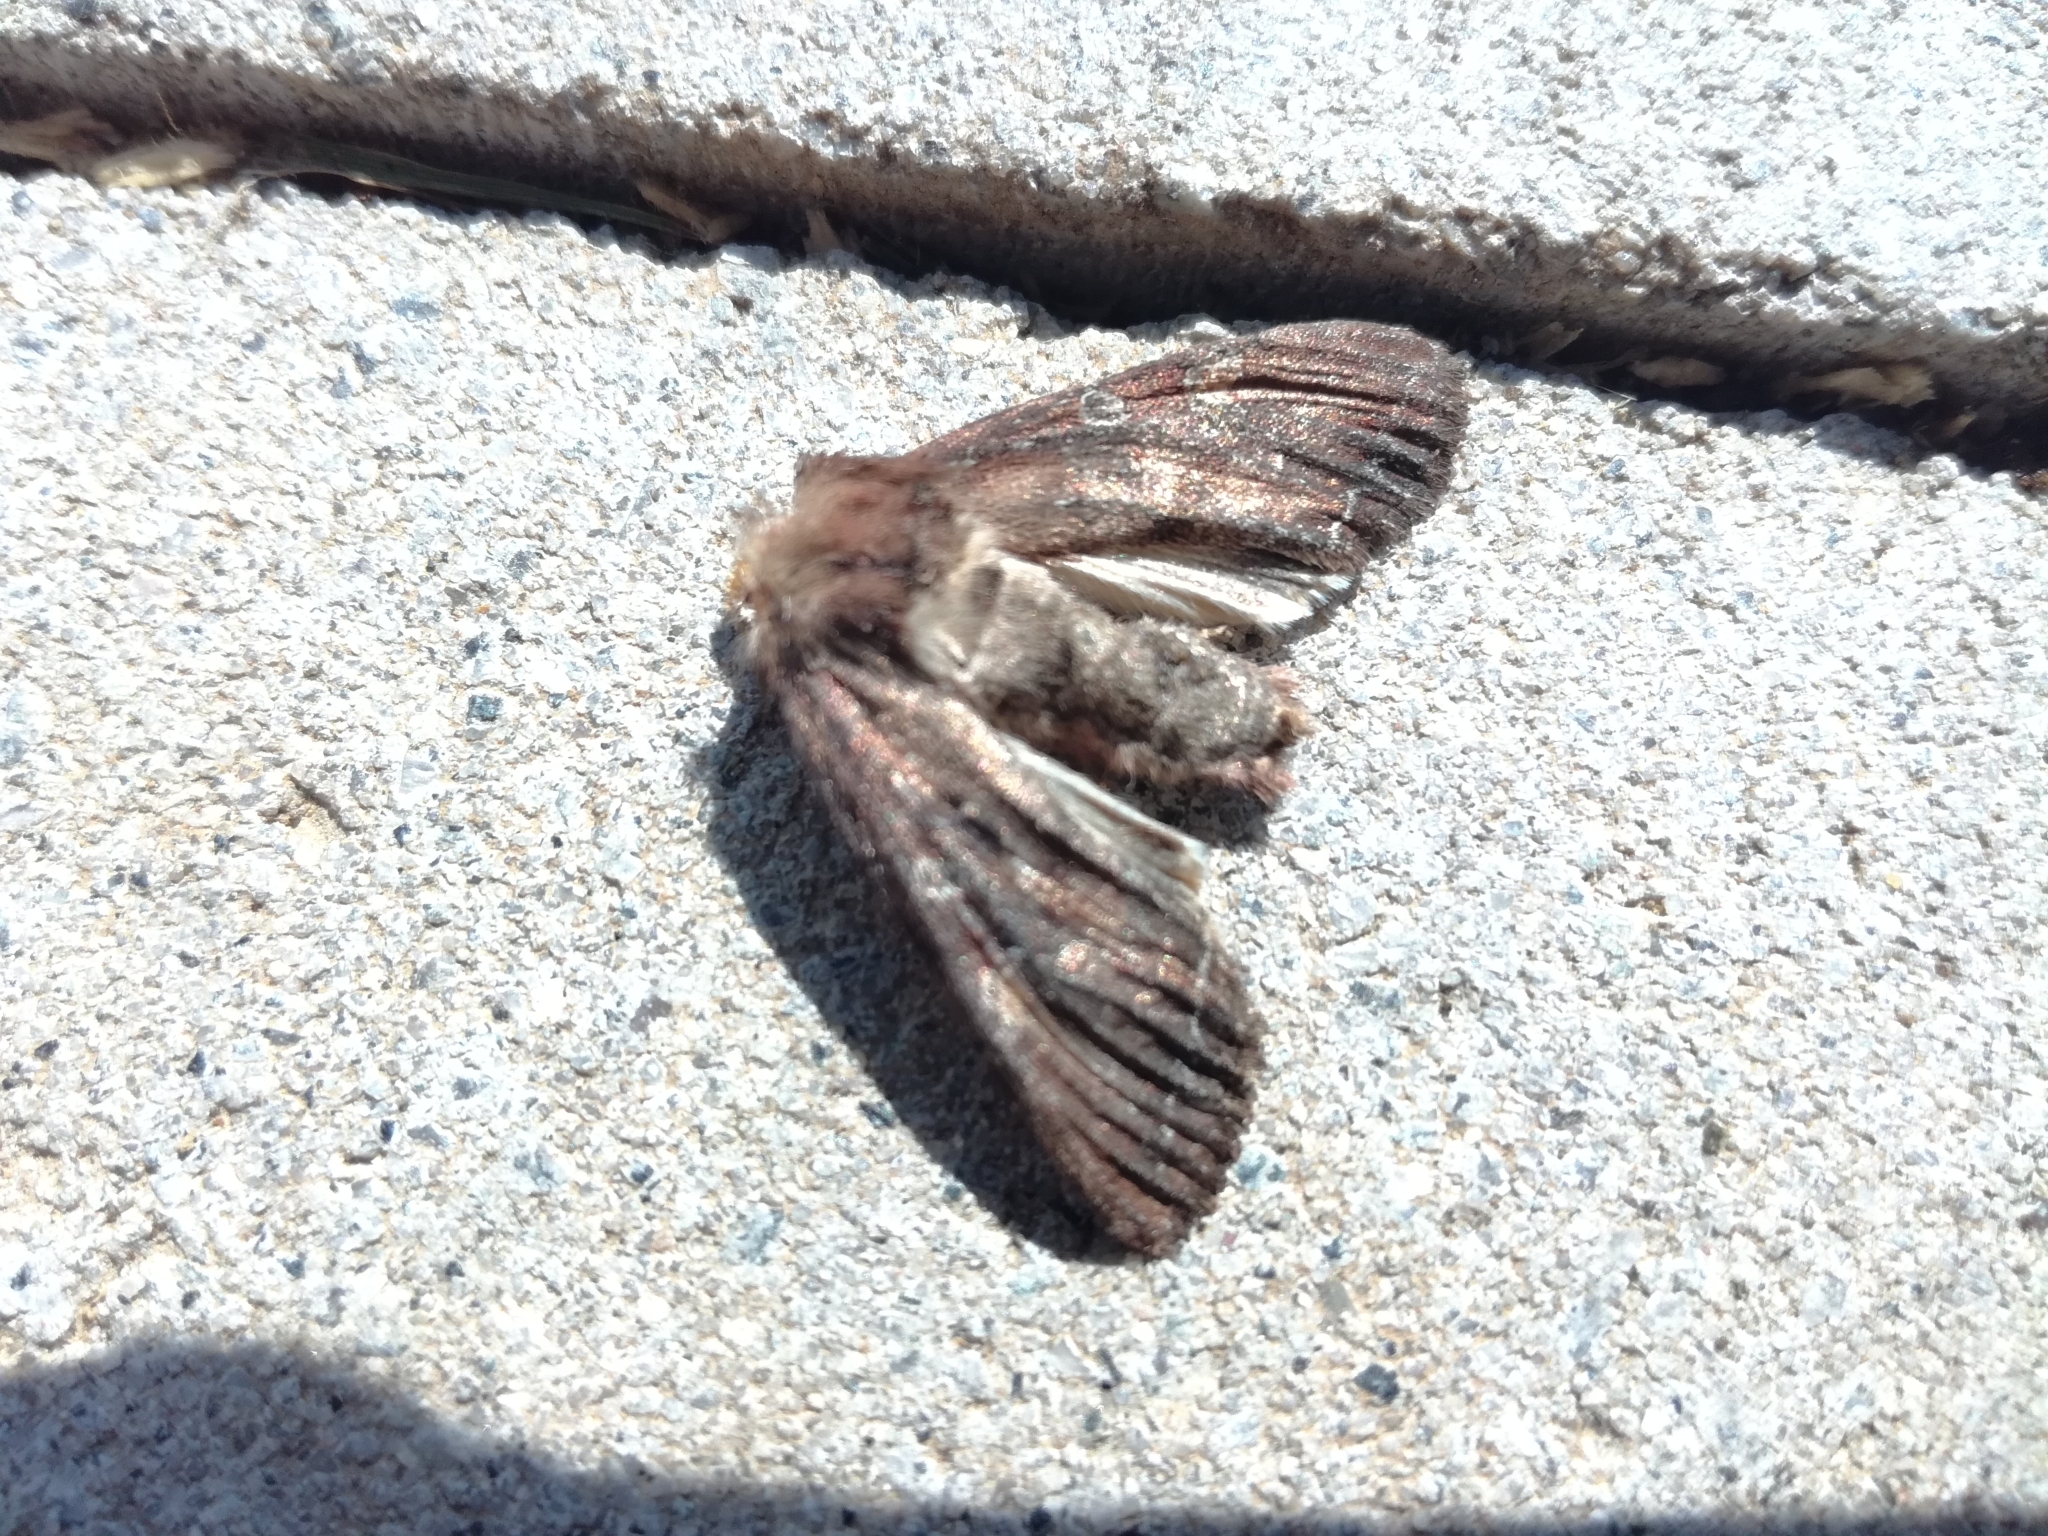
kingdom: Animalia
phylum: Arthropoda
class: Insecta
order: Lepidoptera
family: Noctuidae
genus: Lacanobia
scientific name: Lacanobia oleracea
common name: Bright-line brown-eye
